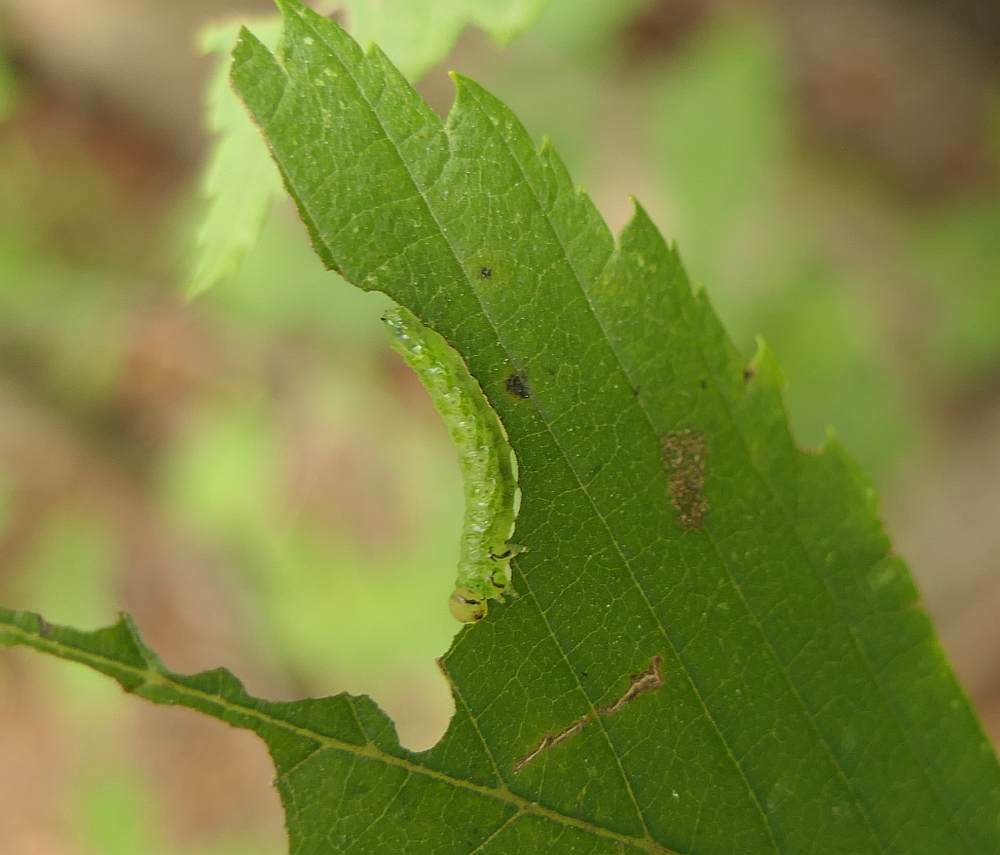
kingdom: Animalia
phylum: Arthropoda
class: Insecta
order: Hymenoptera
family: Argidae
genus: Aproceros
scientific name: Aproceros leucopoda
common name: Zig-zag elm sawfly
